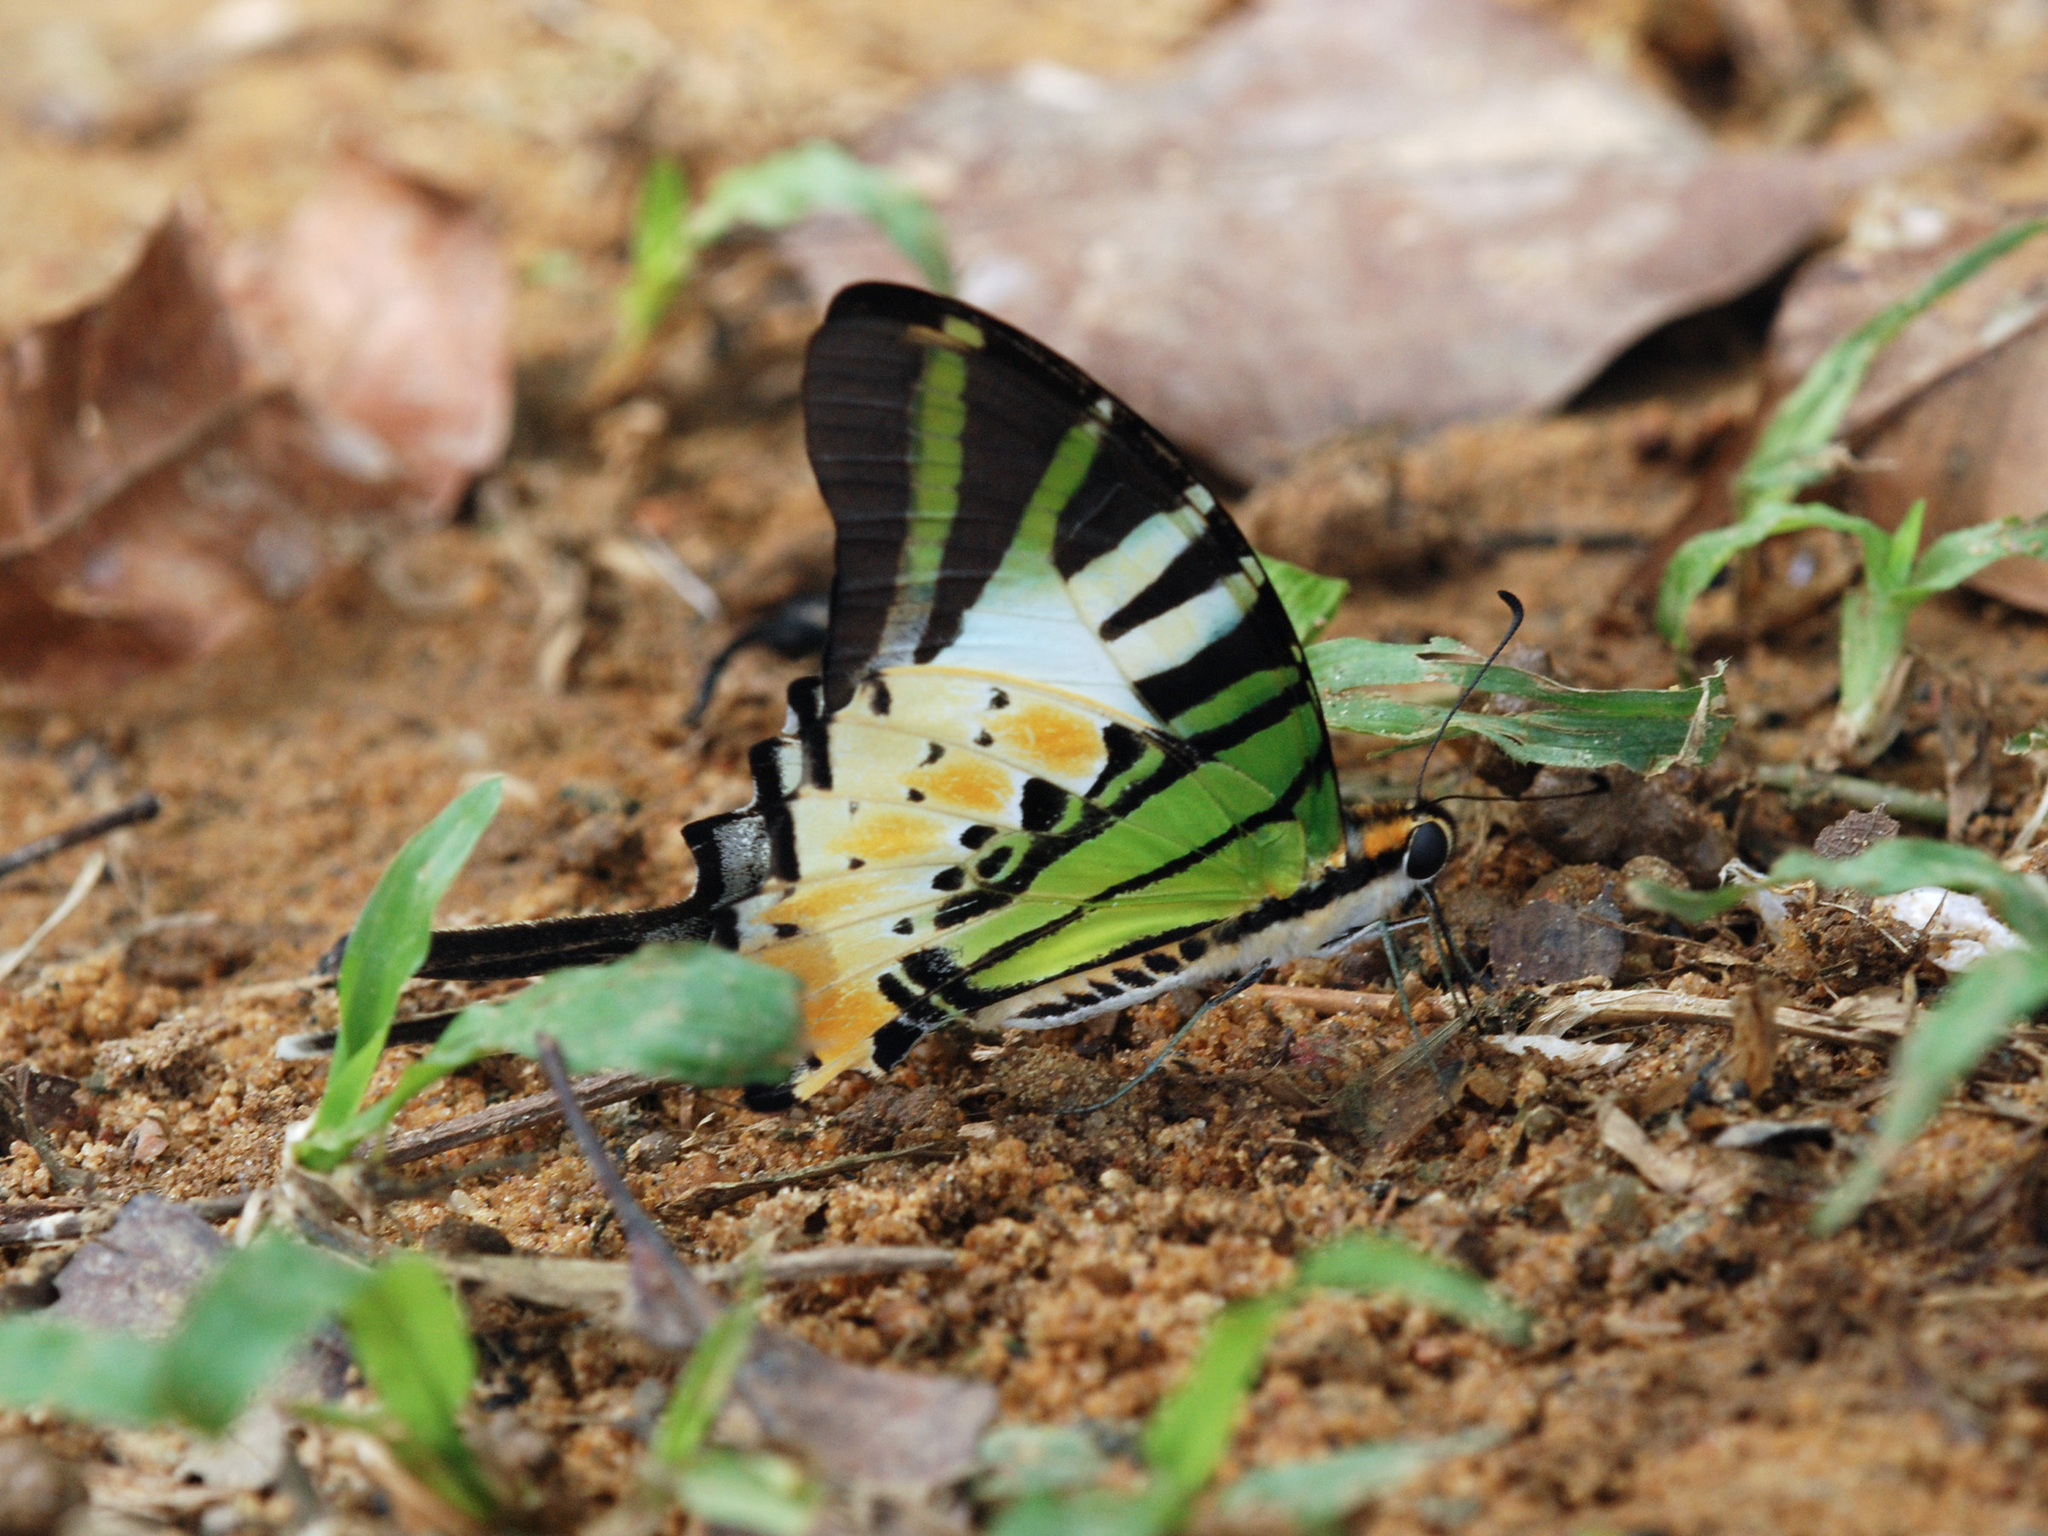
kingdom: Animalia
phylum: Arthropoda
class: Insecta
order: Lepidoptera
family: Papilionidae
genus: Graphium
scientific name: Graphium antiphates
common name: Fivebar swordtail
